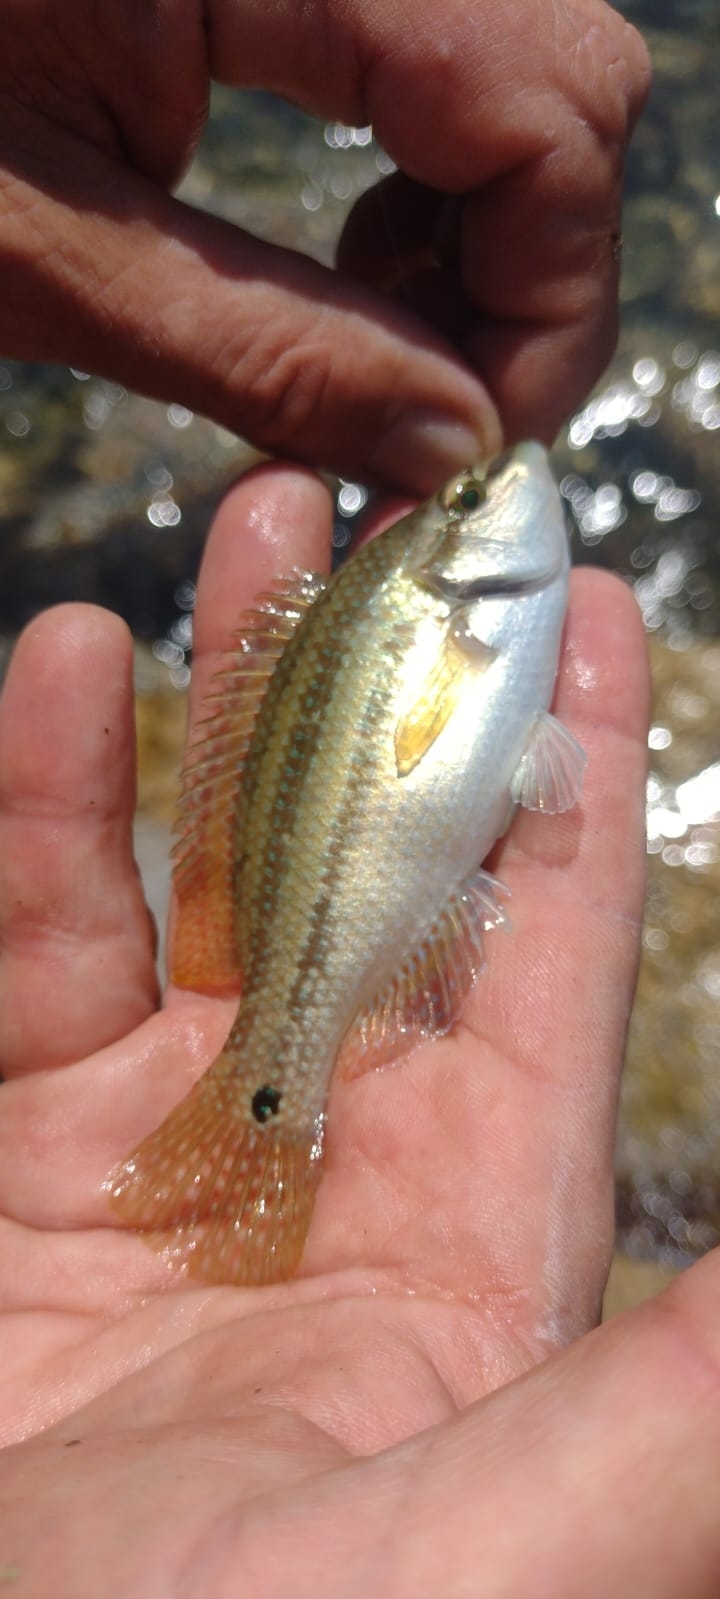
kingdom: Animalia
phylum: Chordata
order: Perciformes
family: Labridae
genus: Symphodus
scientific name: Symphodus tinca
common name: Peacock wrasse
